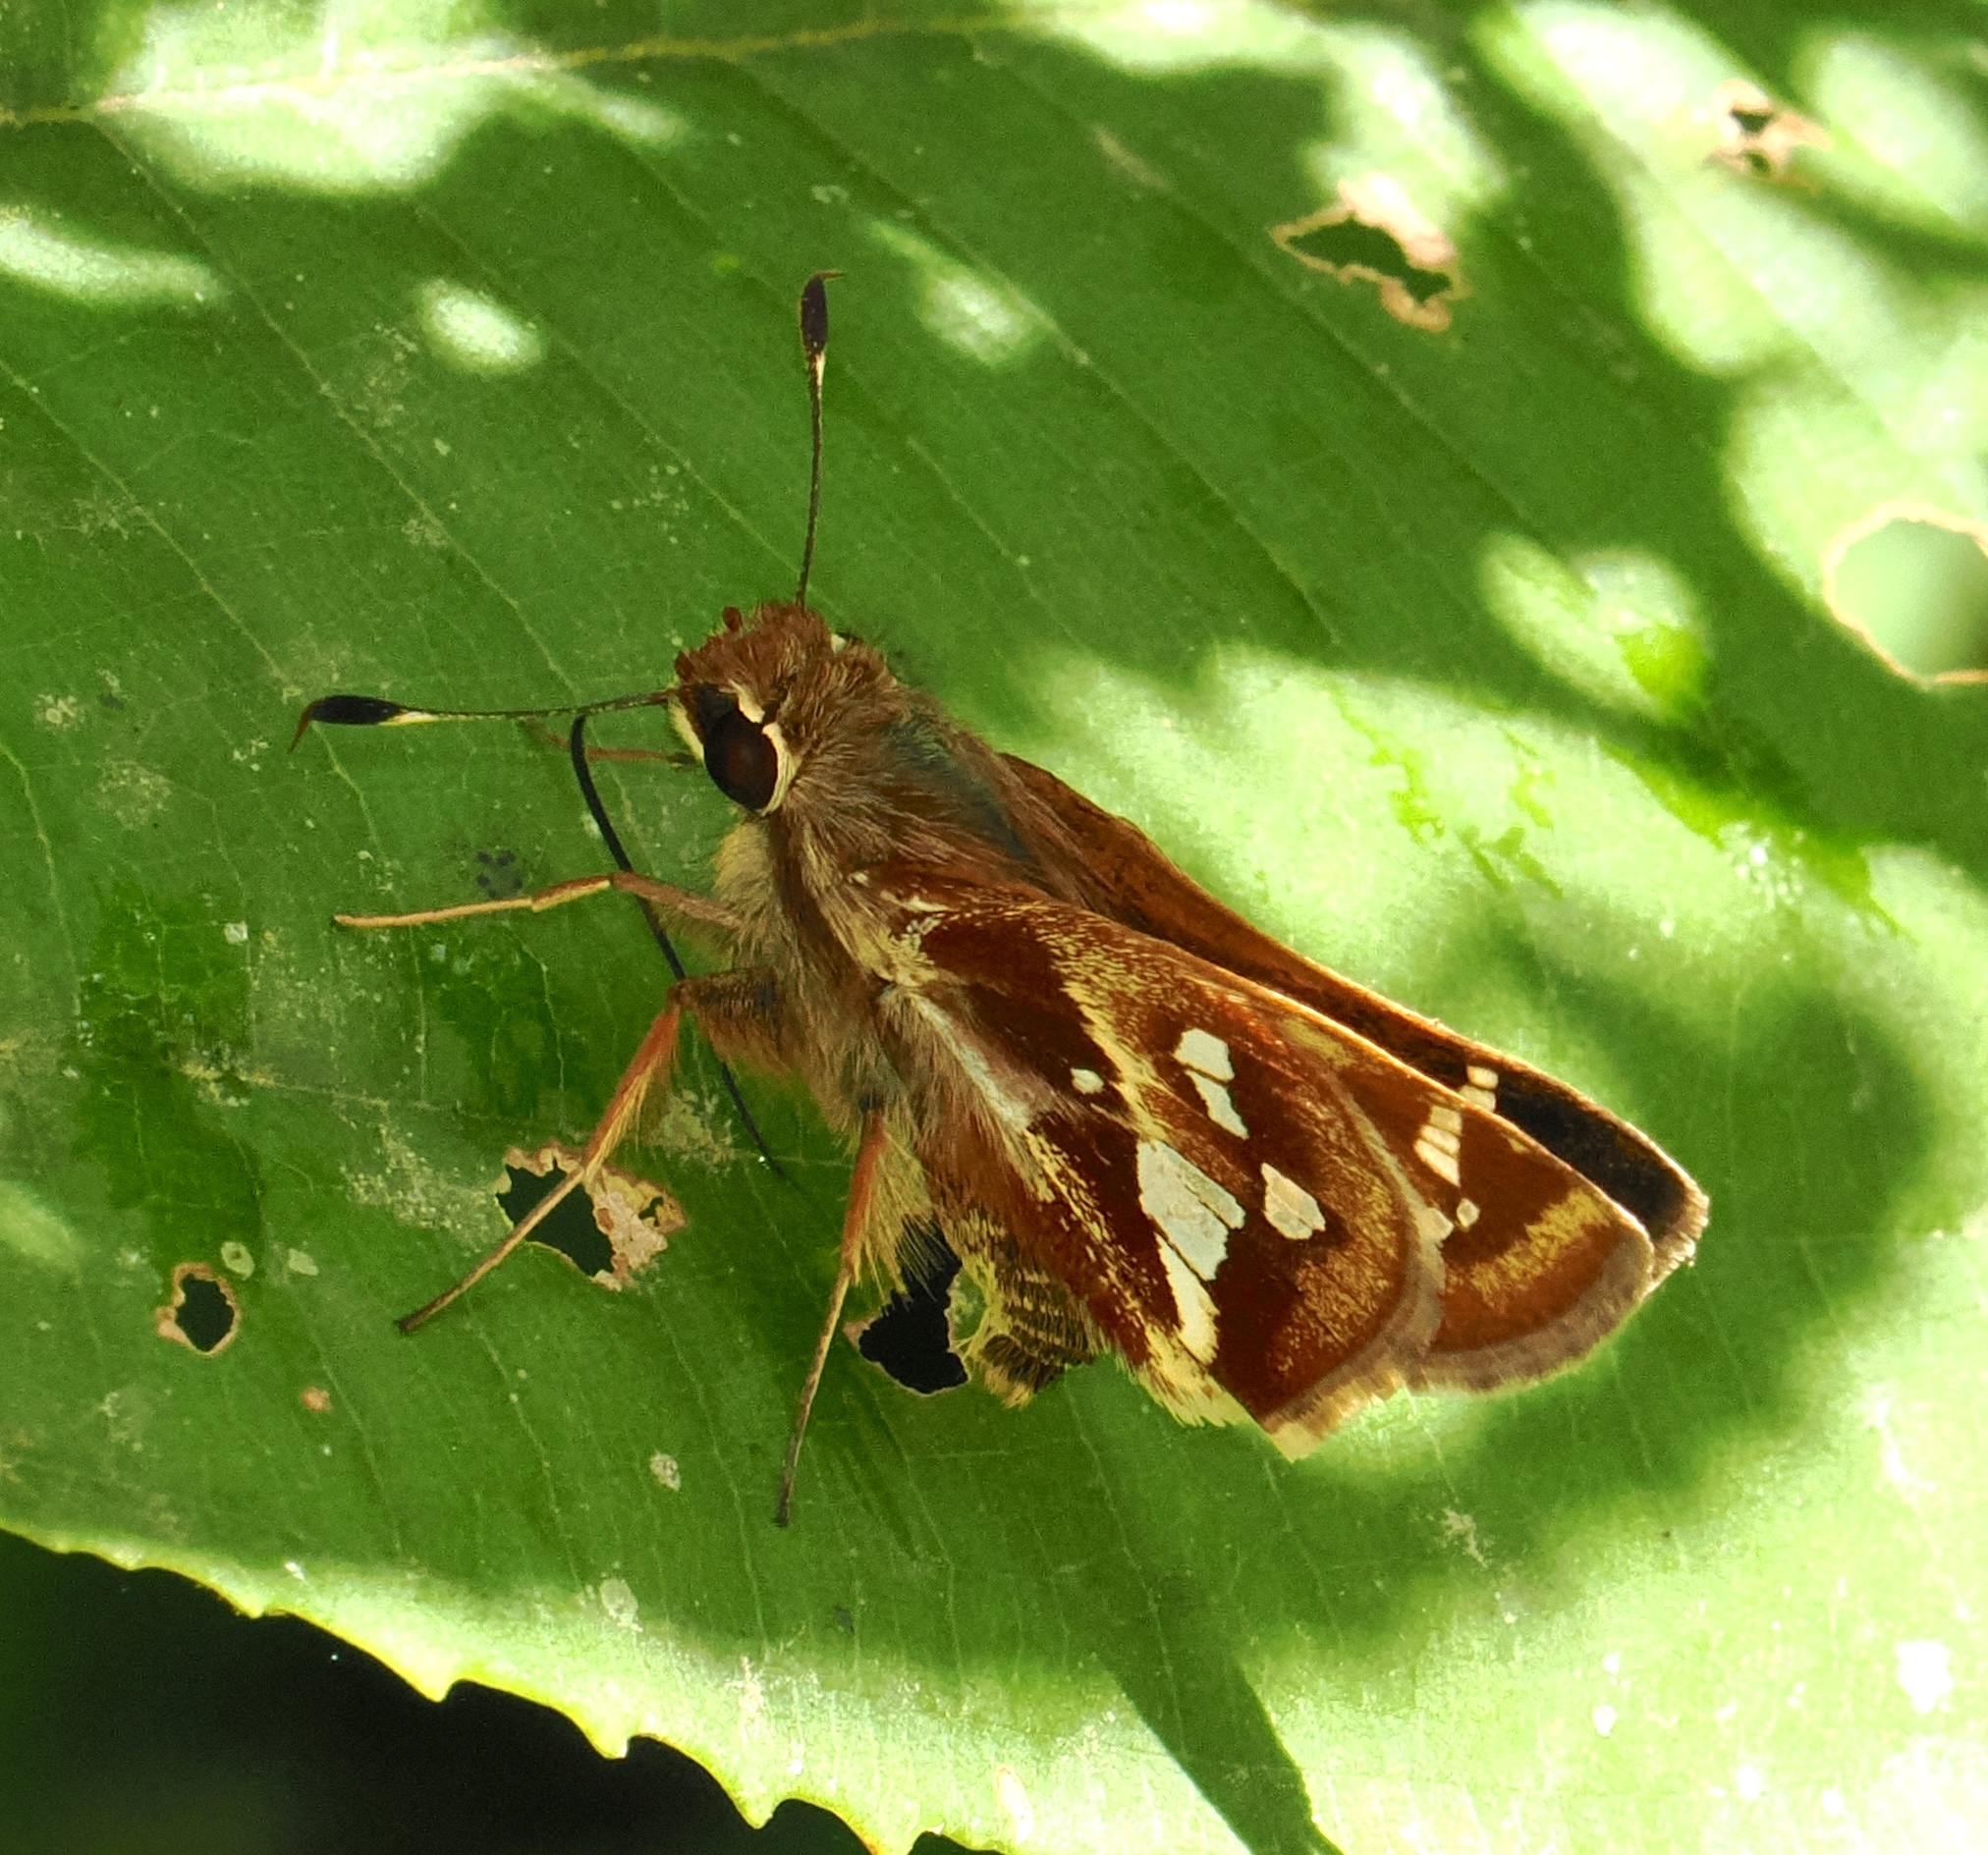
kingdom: Animalia
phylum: Arthropoda
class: Insecta
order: Lepidoptera
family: Hesperiidae
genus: Thespieus
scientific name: Thespieus catochra
